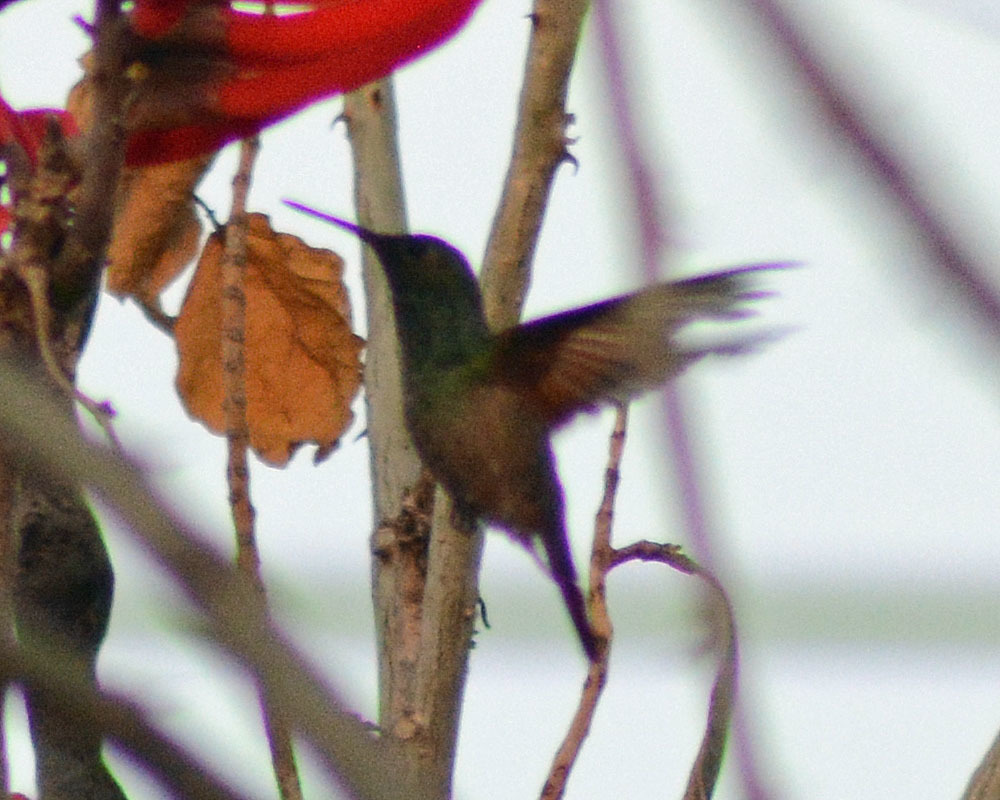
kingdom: Animalia
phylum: Chordata
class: Aves
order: Apodiformes
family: Trochilidae
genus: Saucerottia
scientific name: Saucerottia beryllina
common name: Berylline hummingbird
